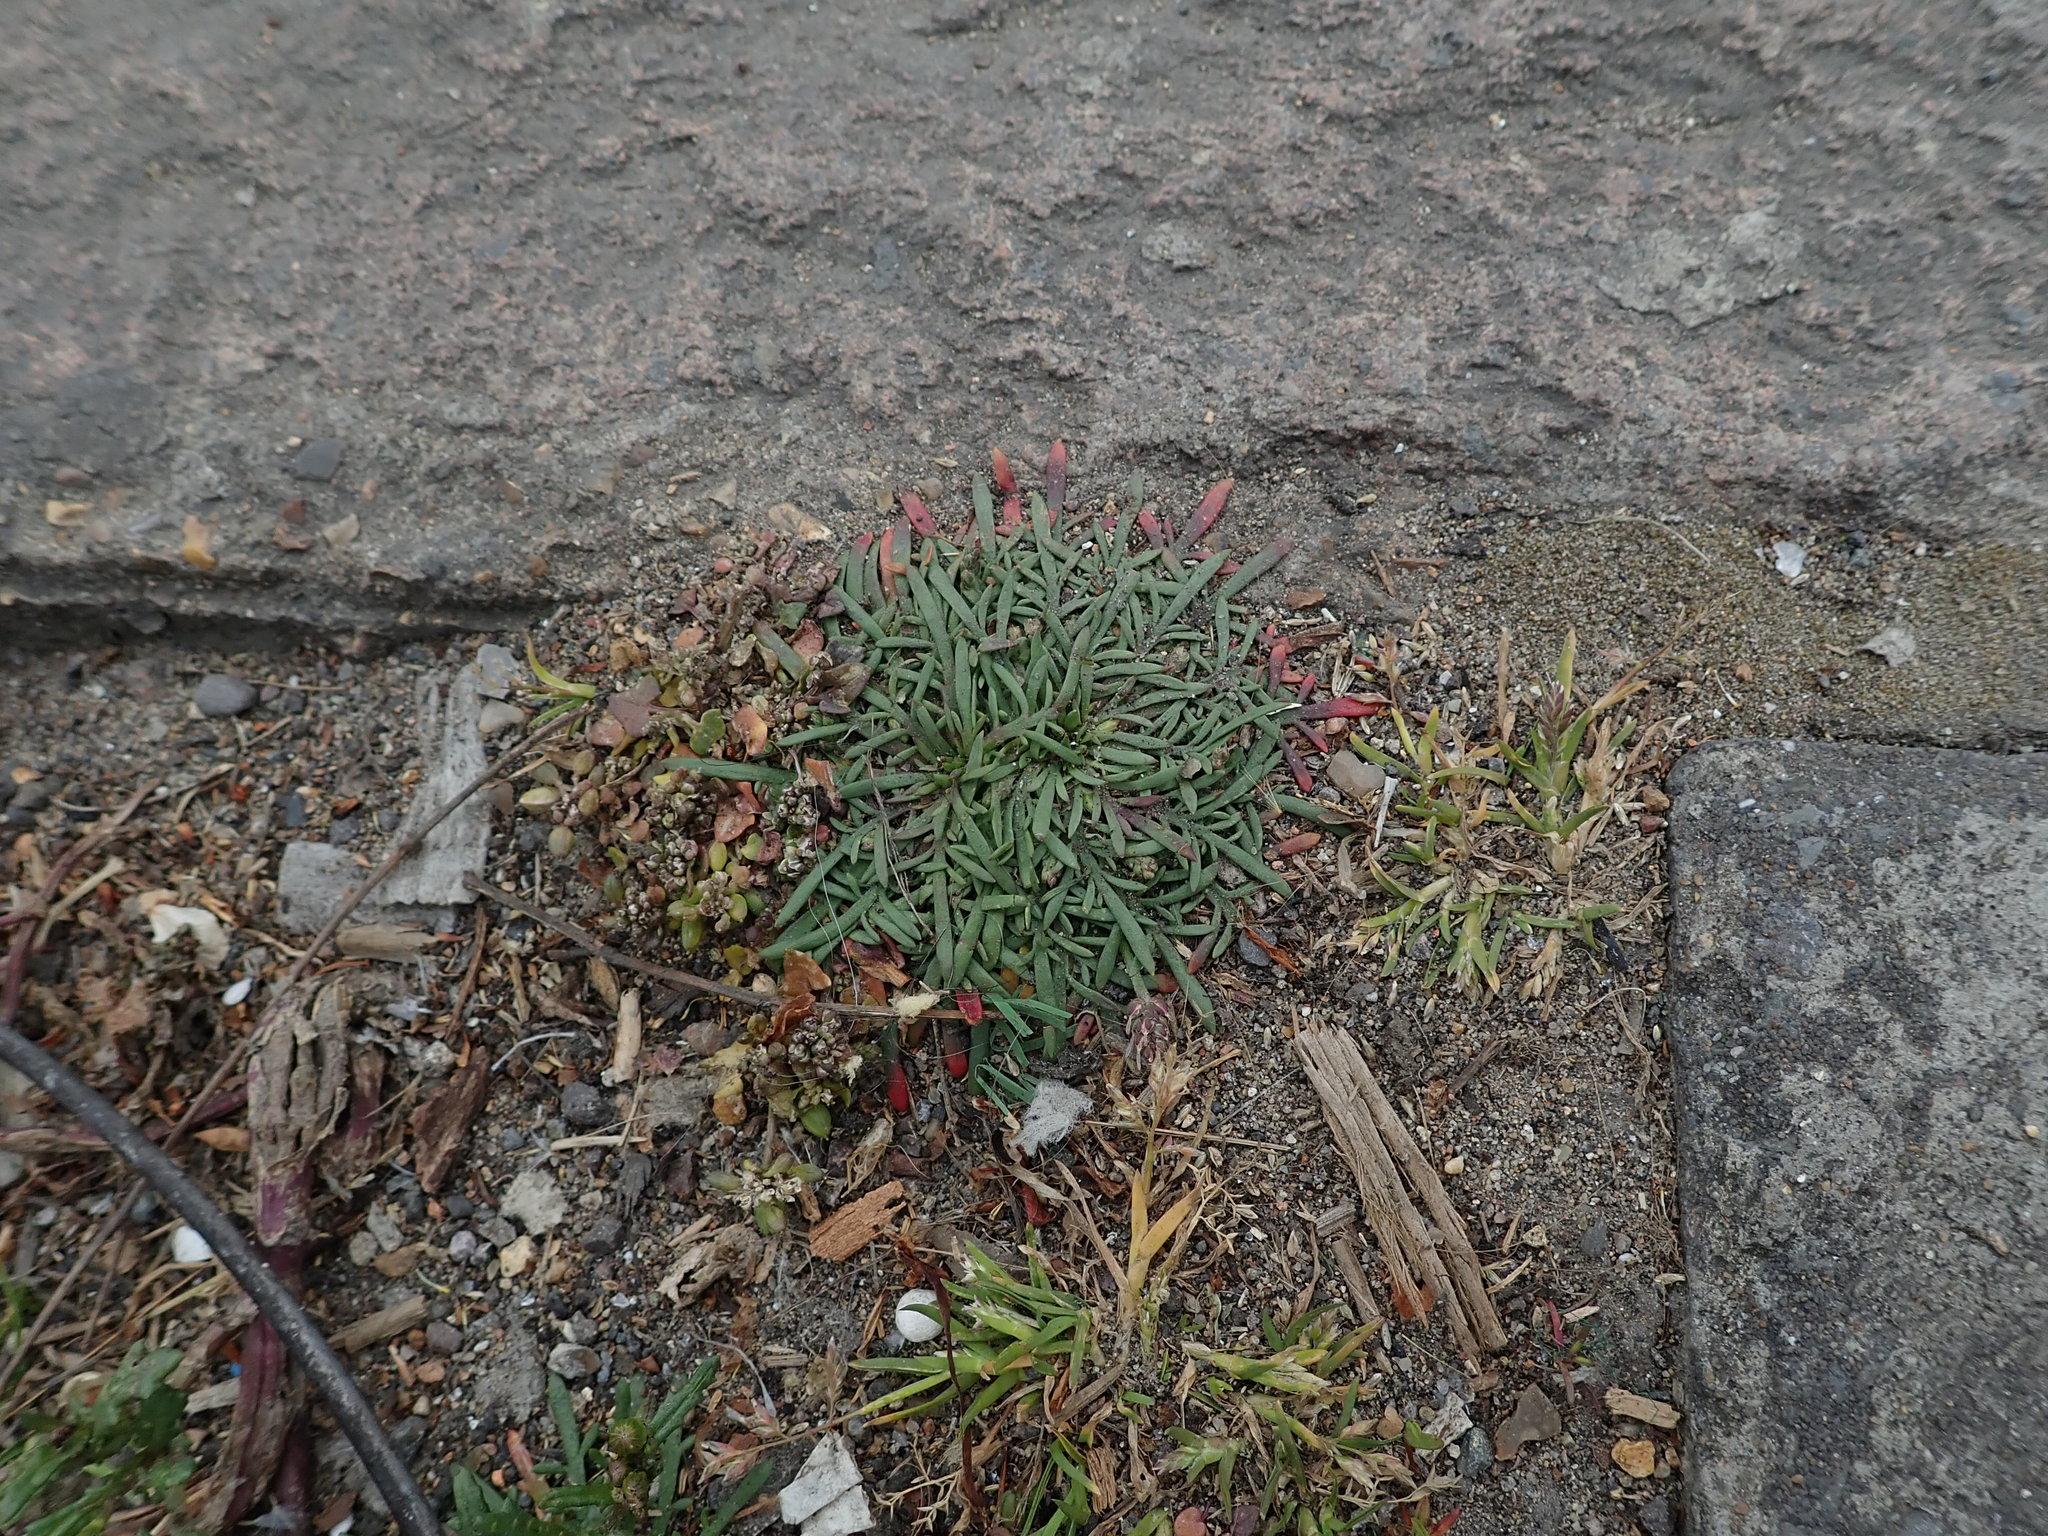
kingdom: Plantae
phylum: Tracheophyta
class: Magnoliopsida
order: Lamiales
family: Plantaginaceae
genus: Plantago
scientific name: Plantago coronopus
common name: Buck's-horn plantain
